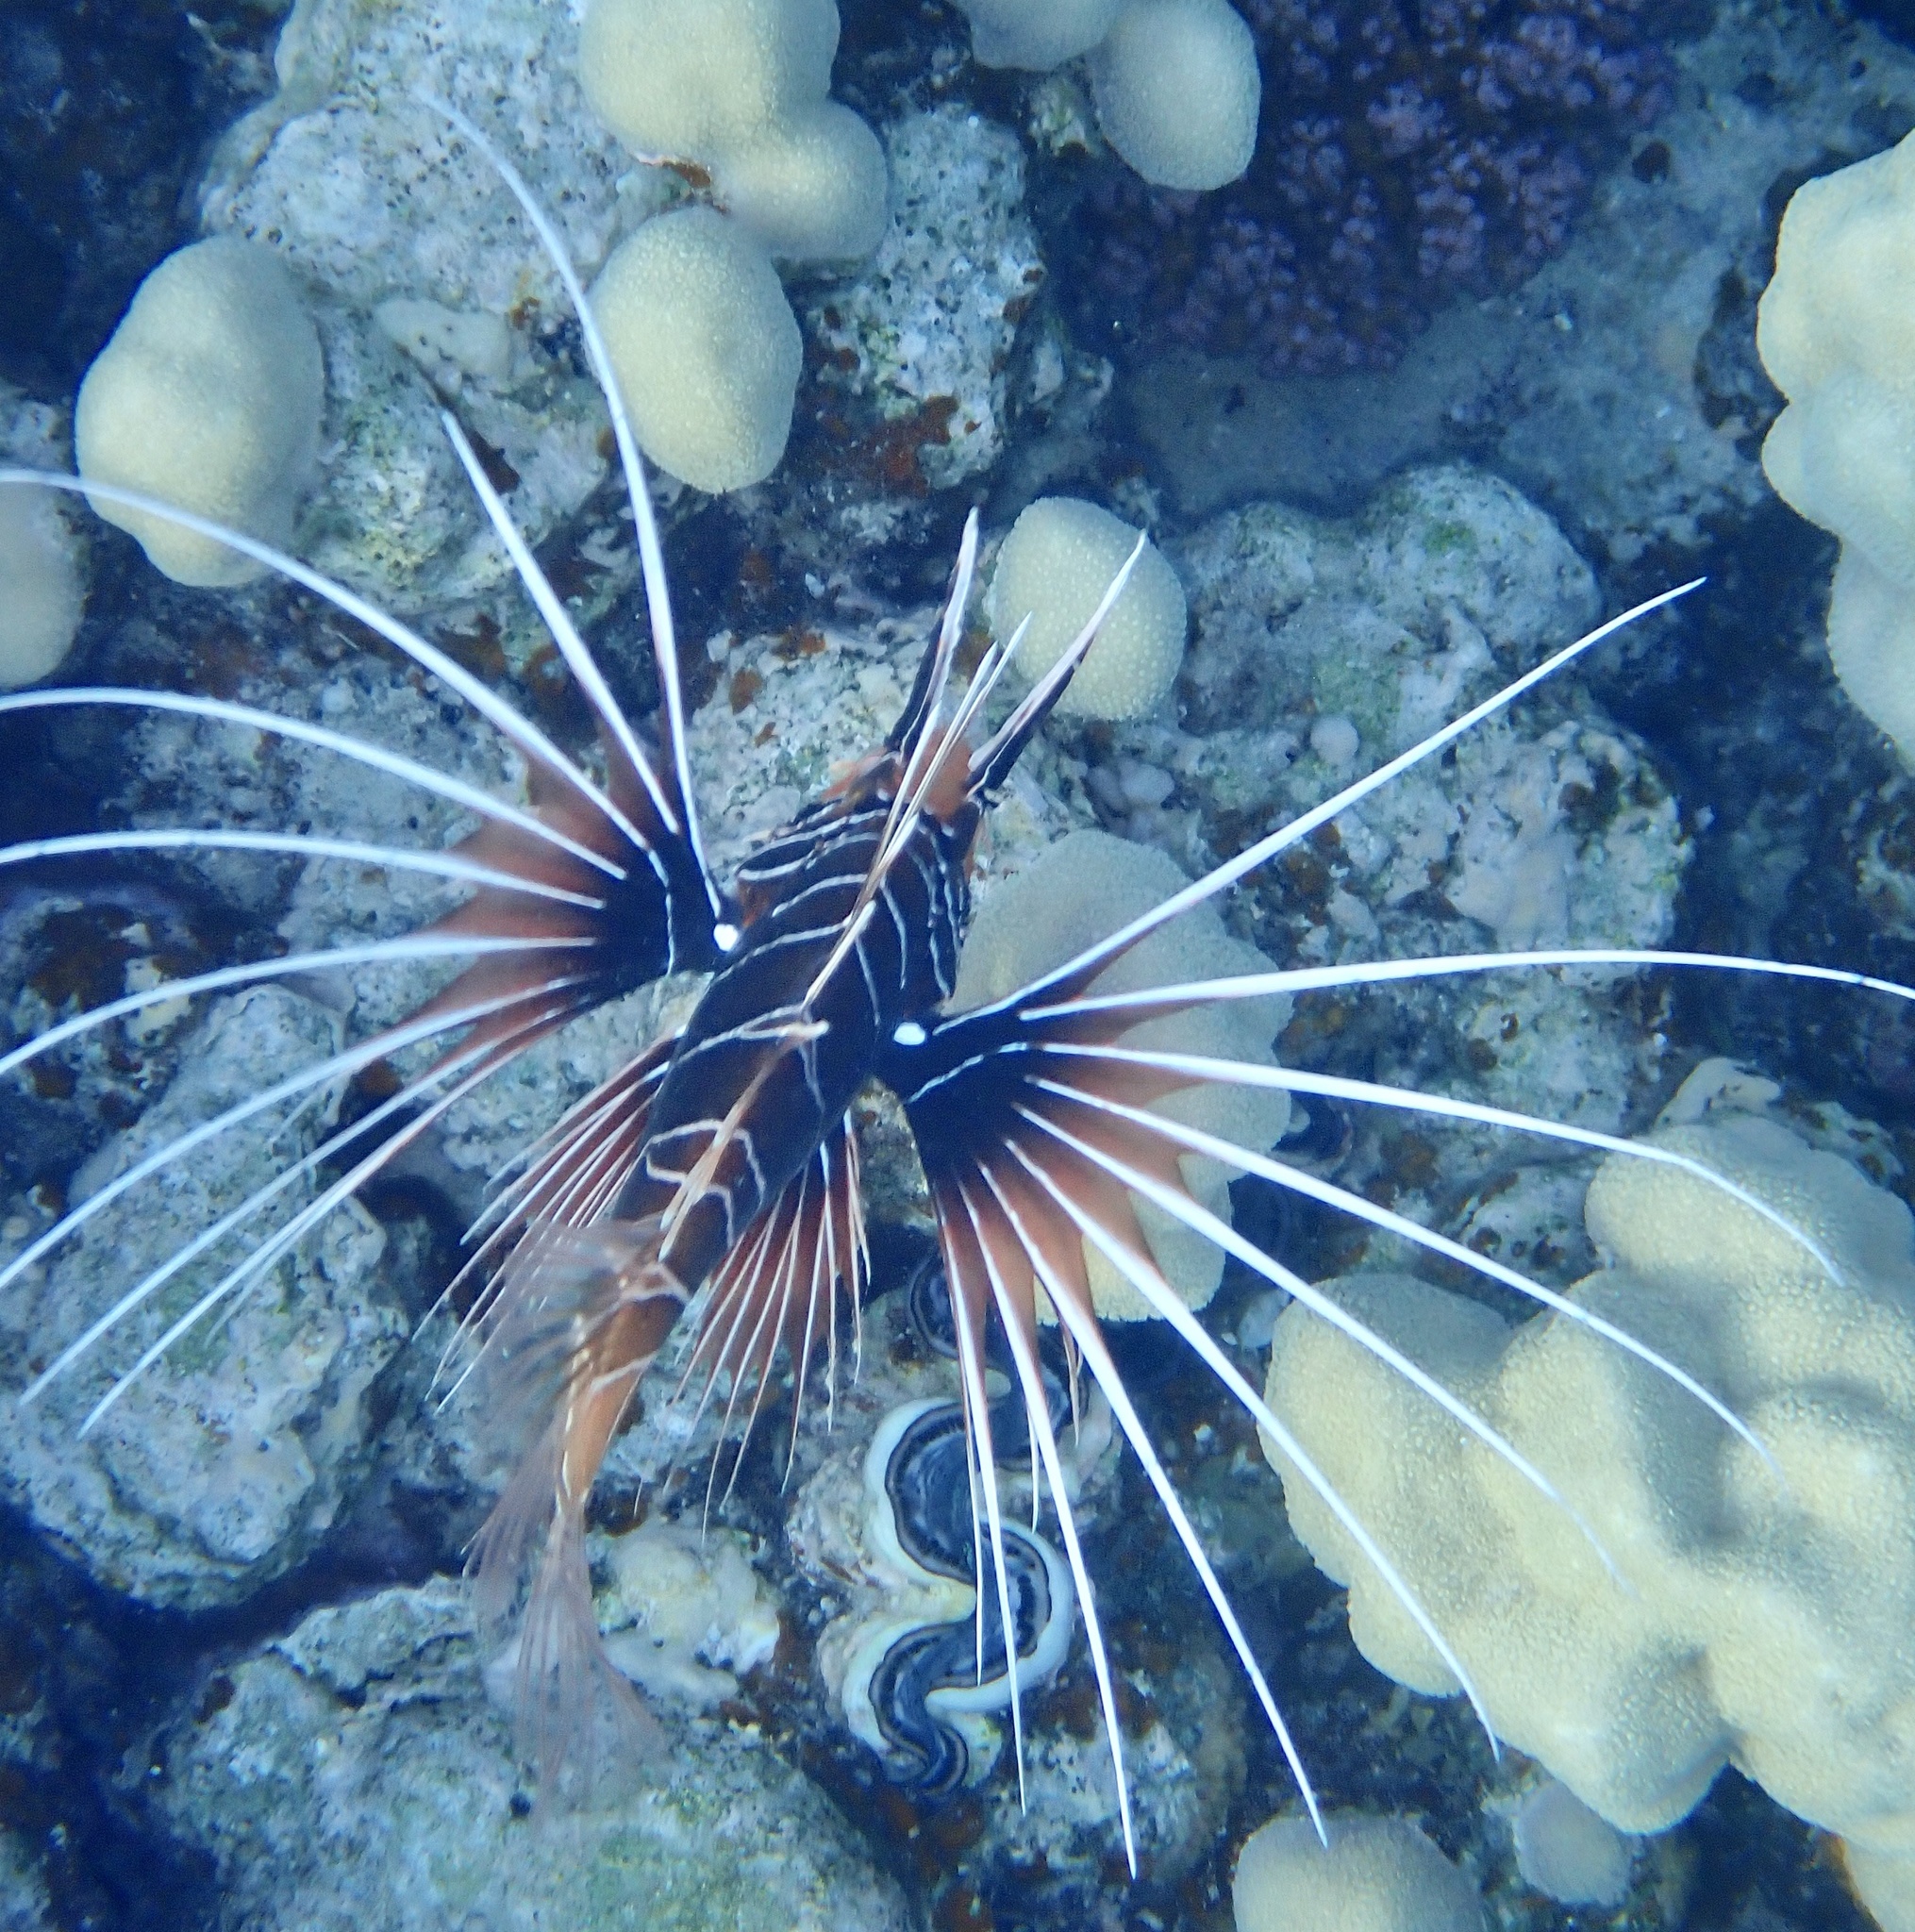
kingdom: Animalia
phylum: Chordata
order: Scorpaeniformes
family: Scorpaenidae
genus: Pterois
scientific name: Pterois cincta
